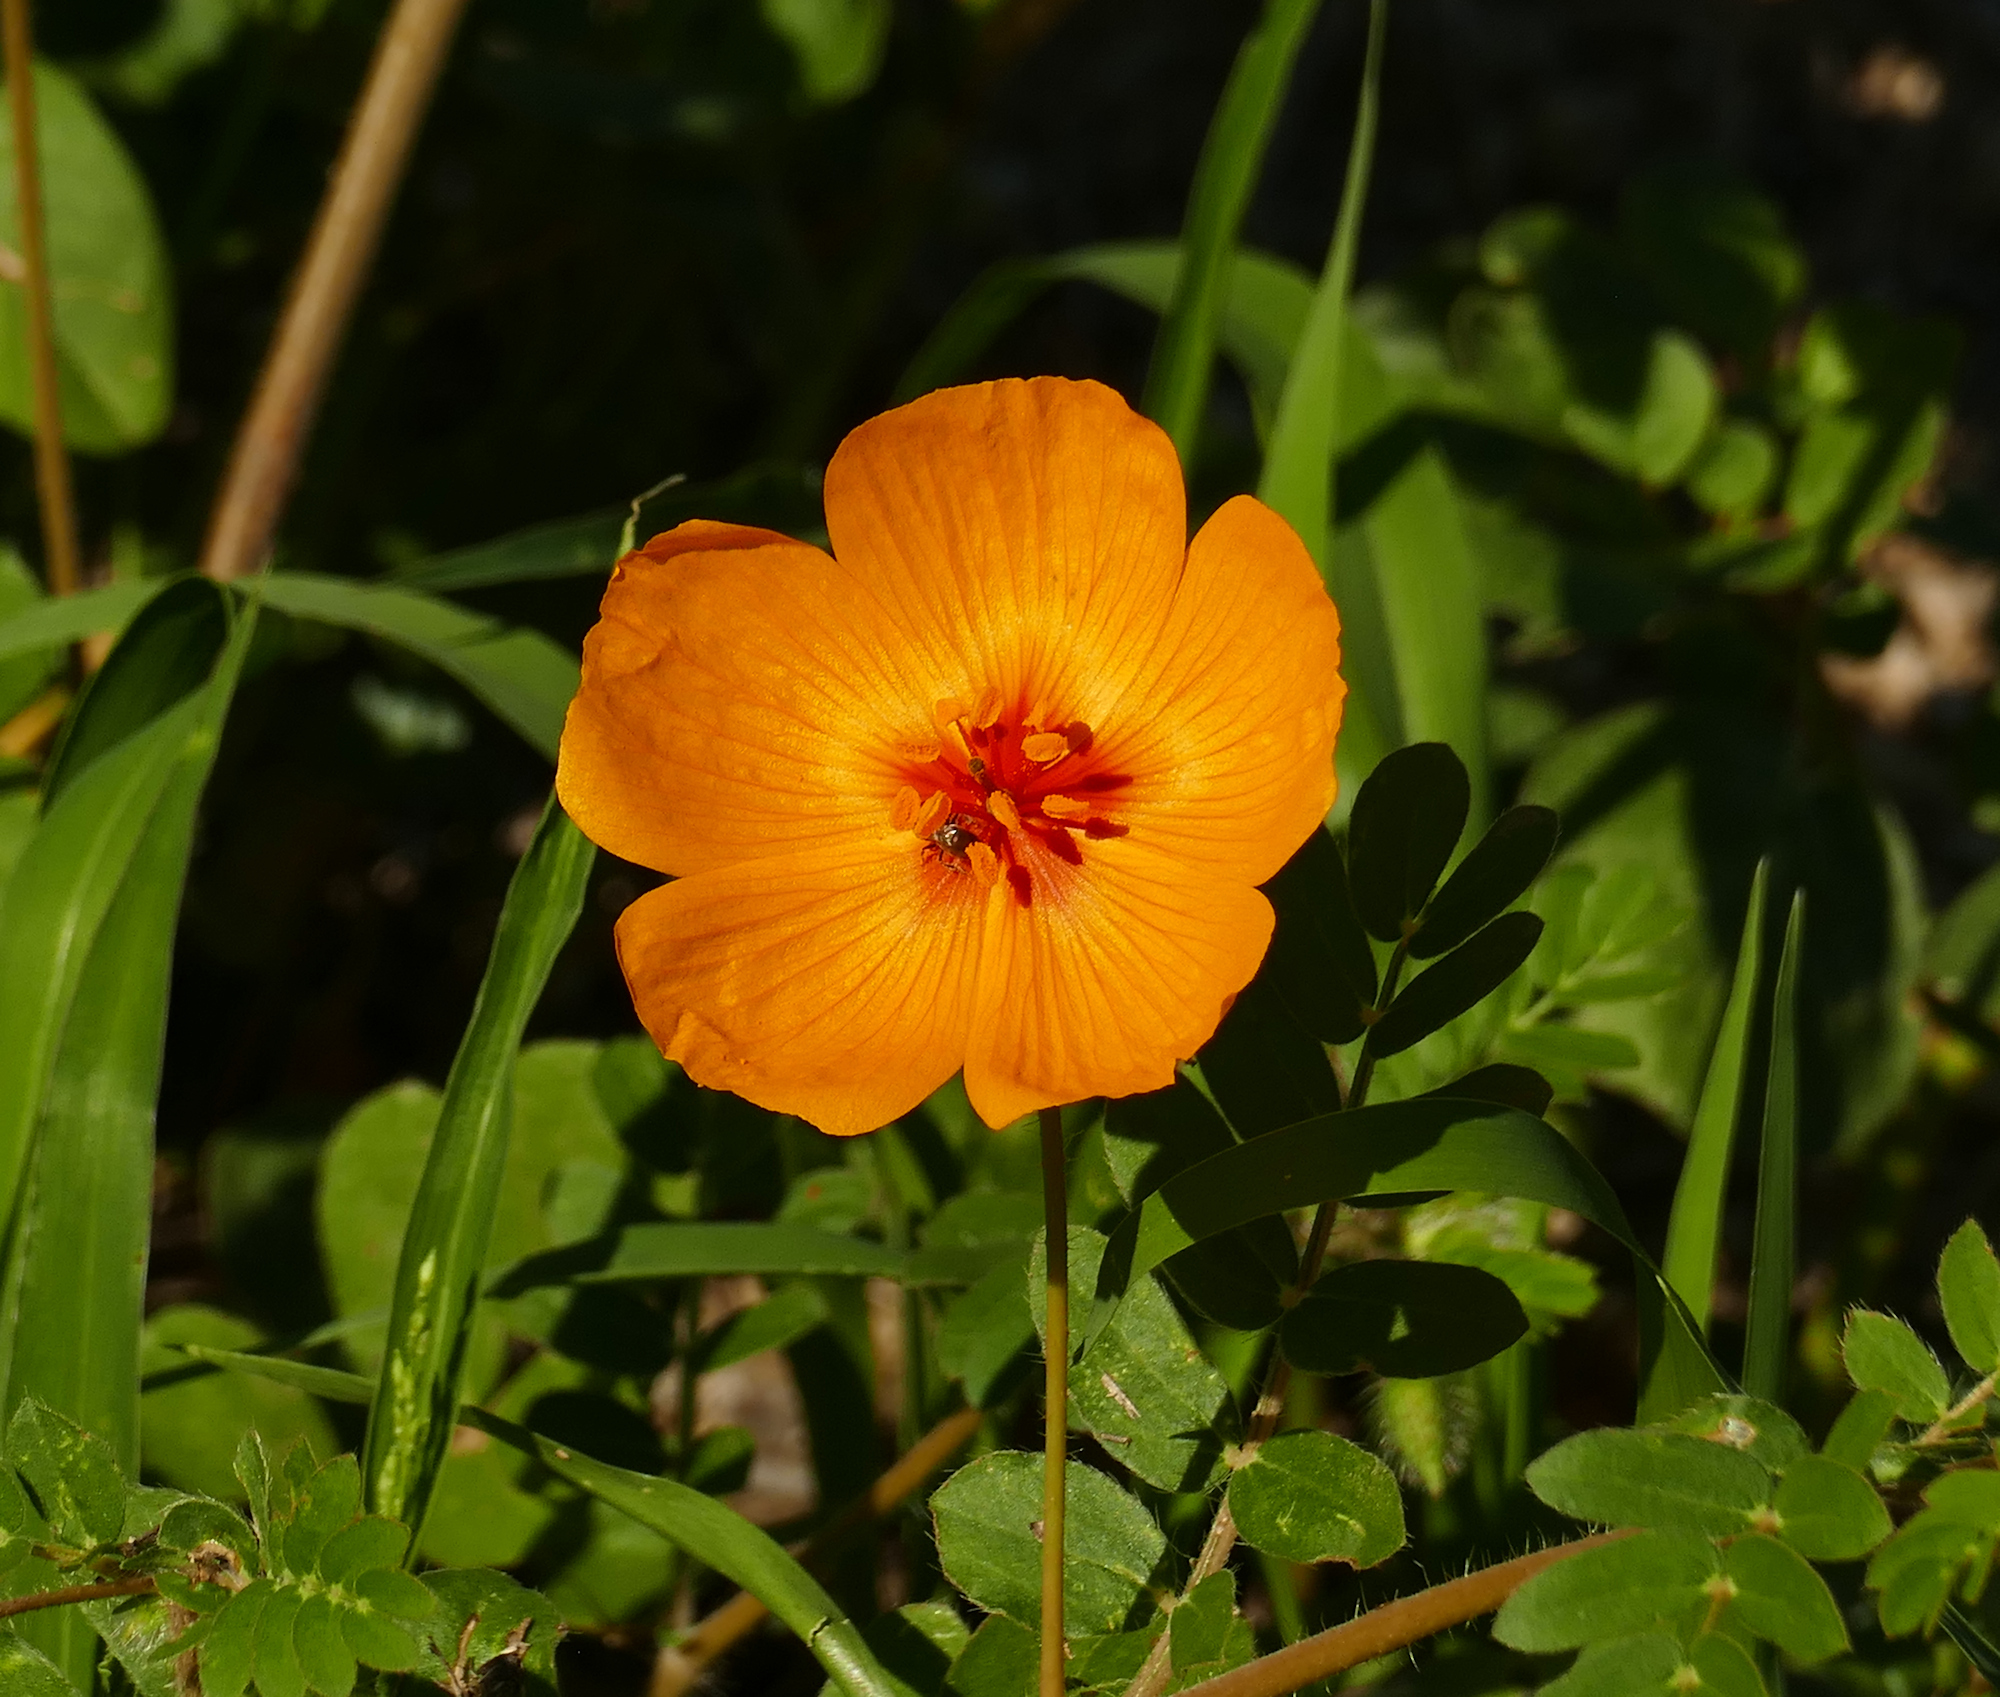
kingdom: Plantae
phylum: Tracheophyta
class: Magnoliopsida
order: Zygophyllales
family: Zygophyllaceae
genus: Kallstroemia
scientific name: Kallstroemia grandiflora
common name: Arizona-poppy
